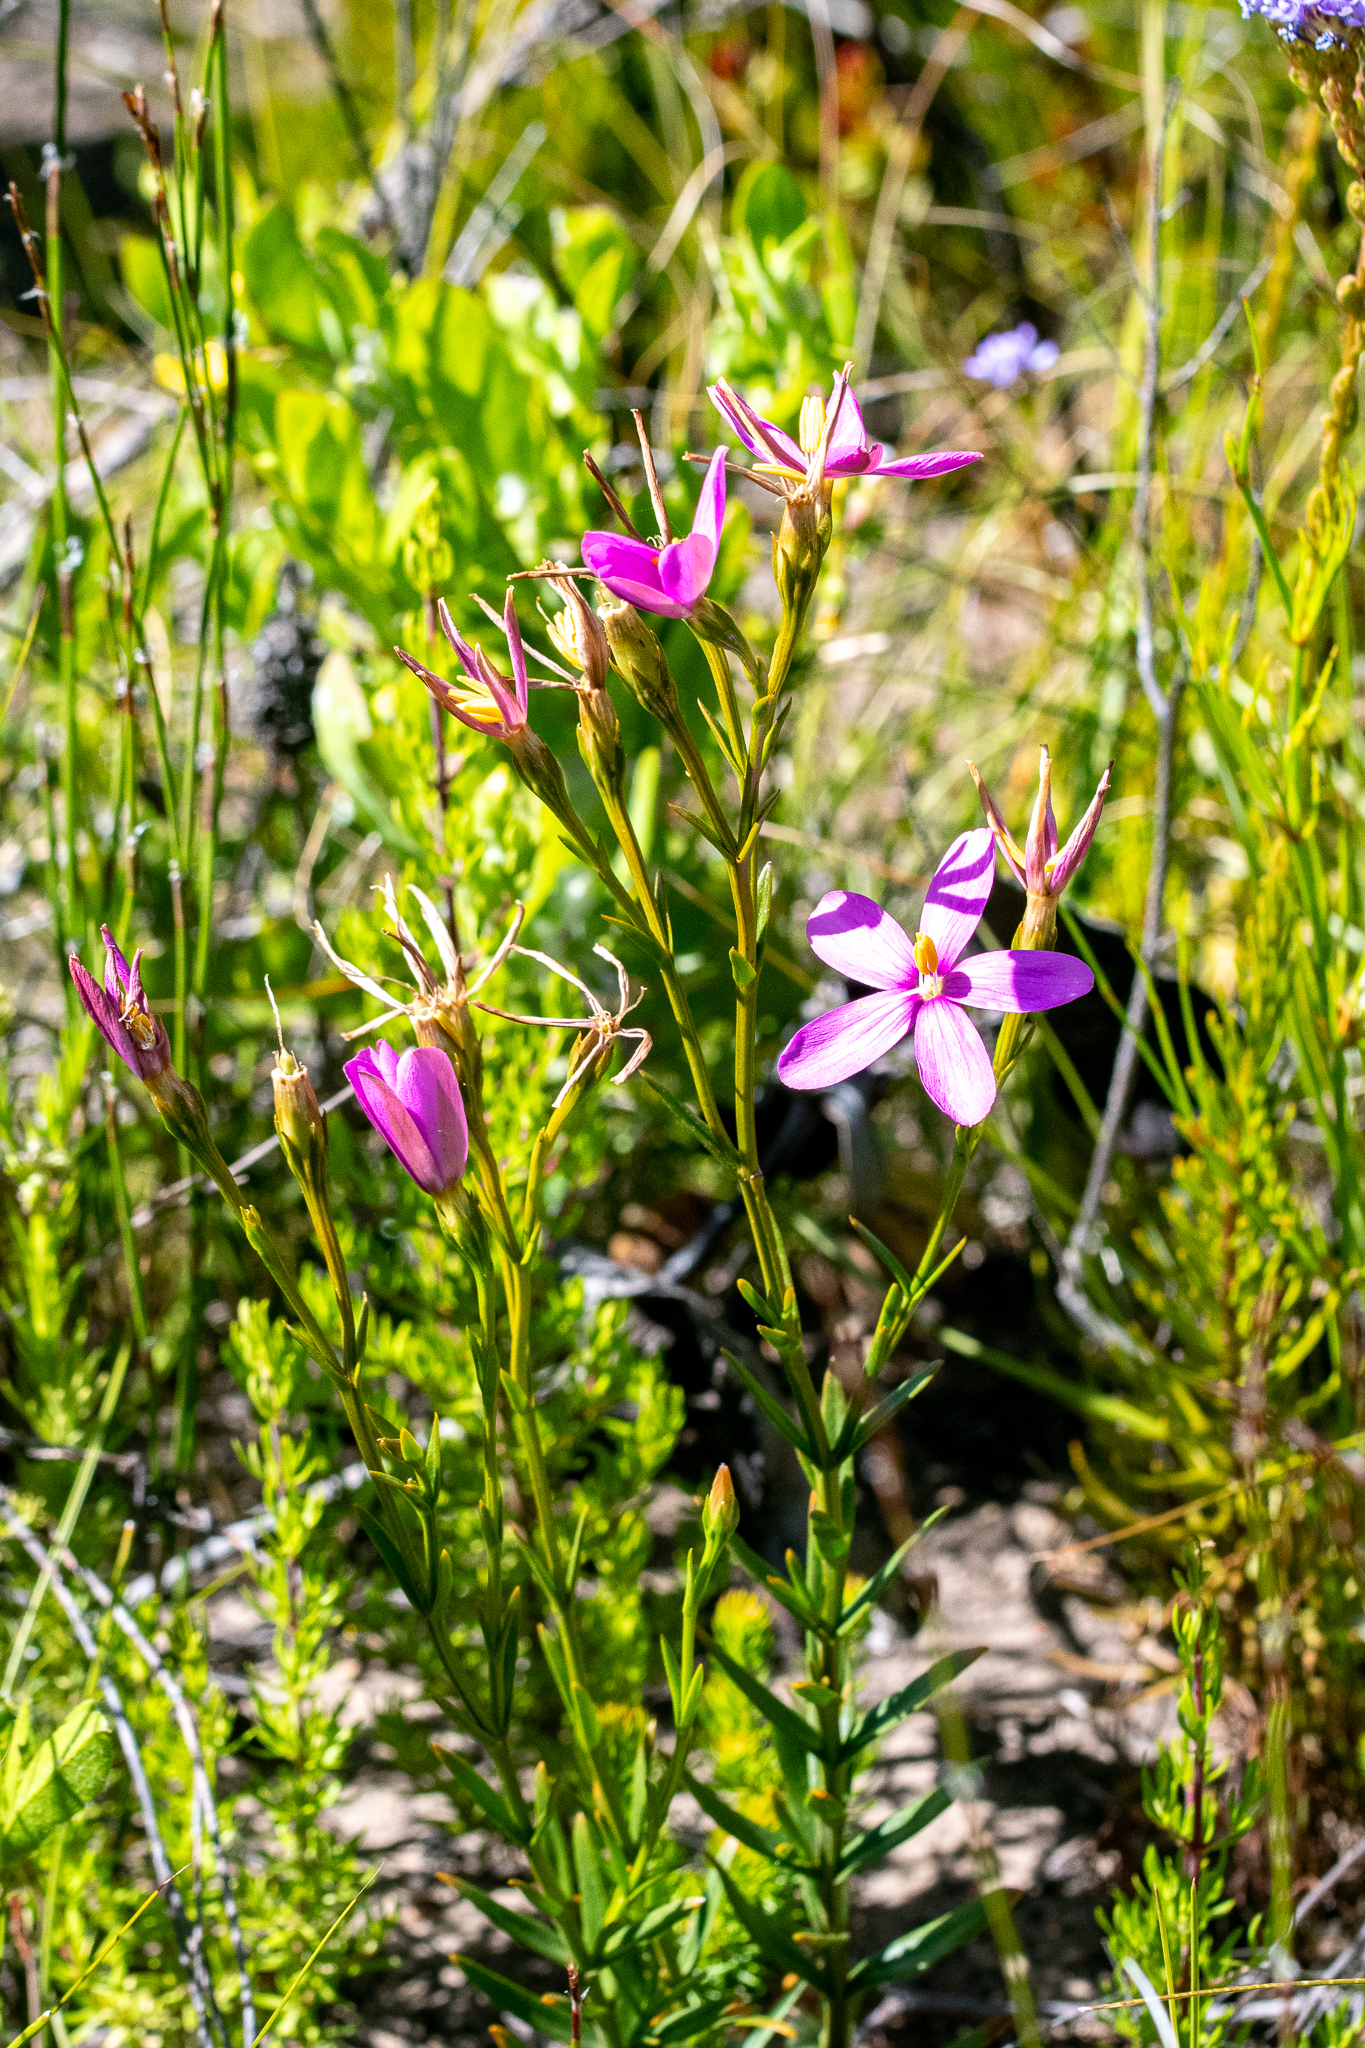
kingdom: Plantae
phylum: Tracheophyta
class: Magnoliopsida
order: Gentianales
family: Gentianaceae
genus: Chironia
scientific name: Chironia tetragona
